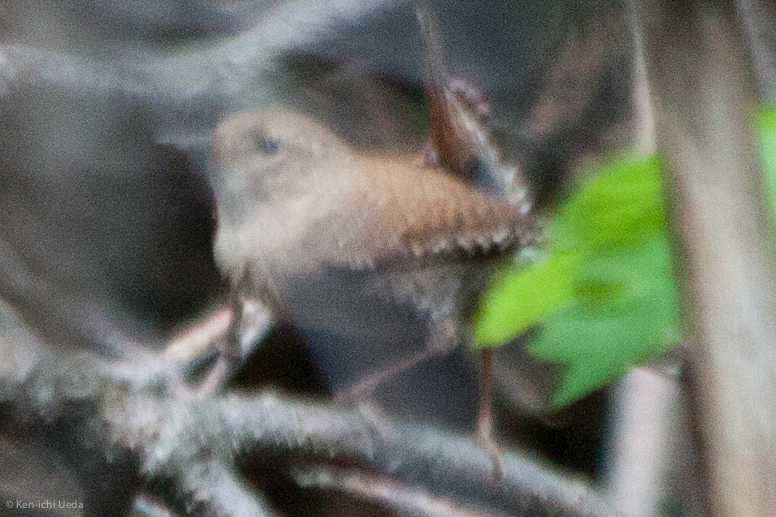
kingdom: Animalia
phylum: Chordata
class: Aves
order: Passeriformes
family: Troglodytidae
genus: Troglodytes
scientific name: Troglodytes hiemalis
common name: Winter wren
